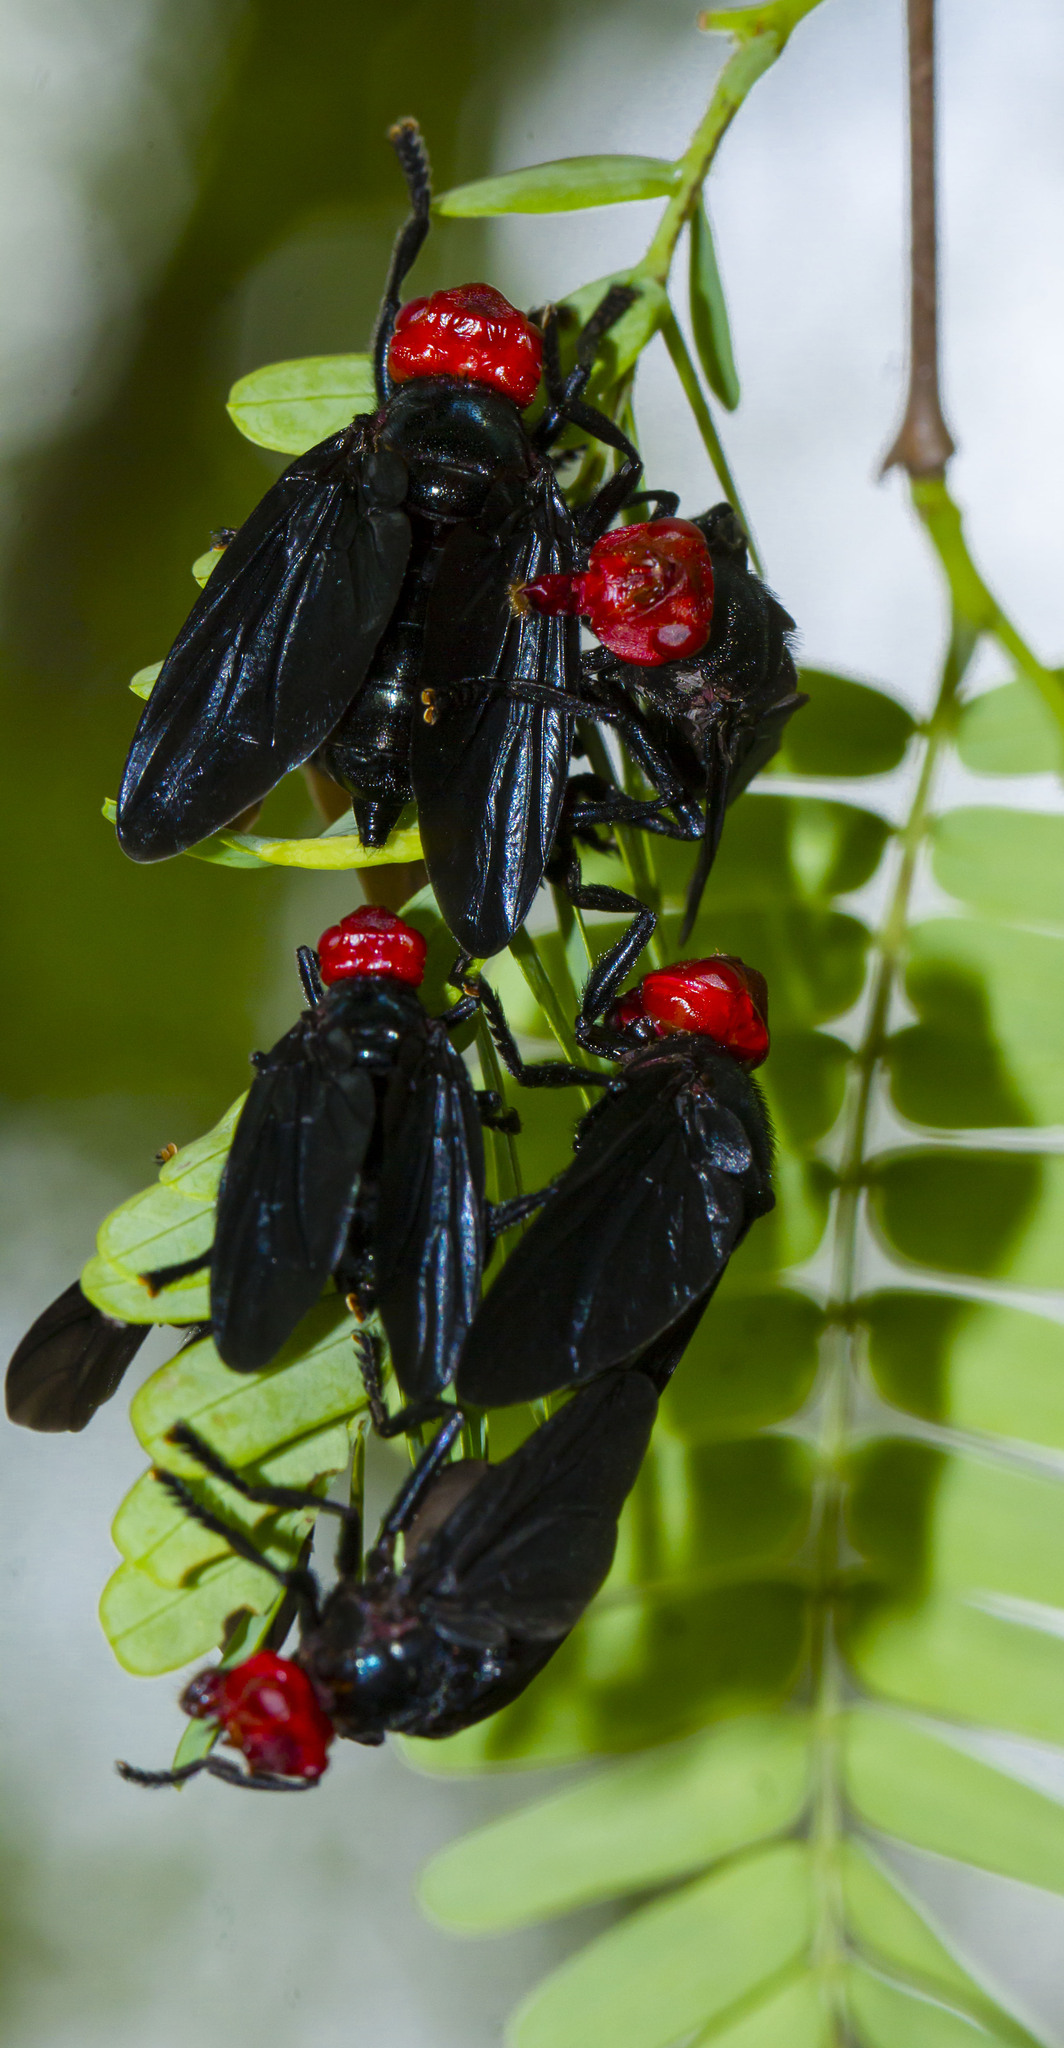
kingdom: Animalia
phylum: Arthropoda
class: Insecta
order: Diptera
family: Platystomatidae
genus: Bromophila
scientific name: Bromophila caffra
